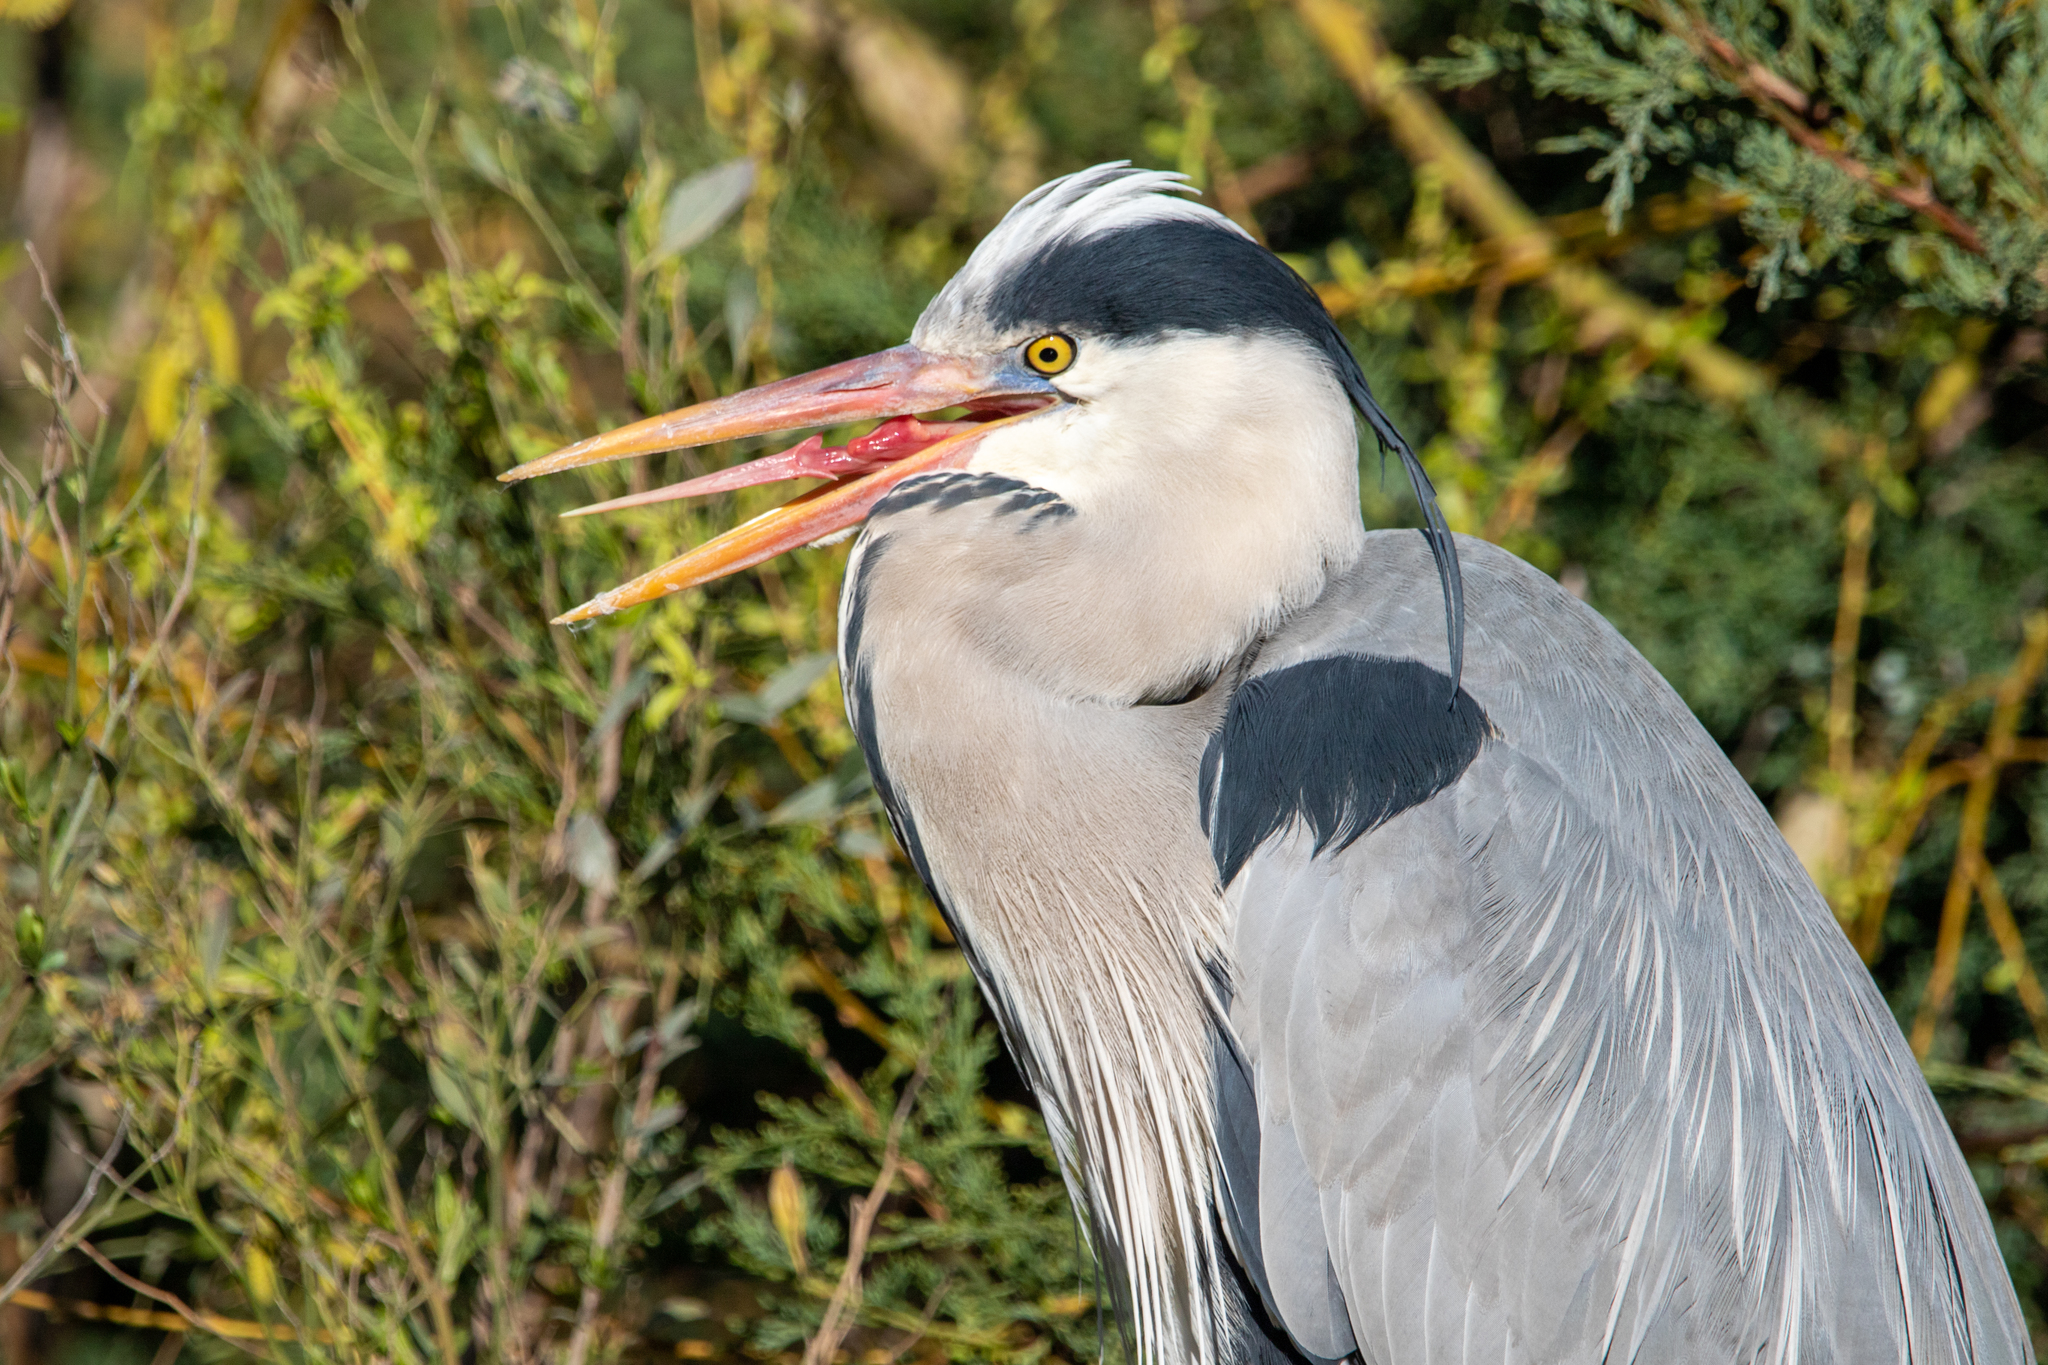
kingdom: Animalia
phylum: Chordata
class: Aves
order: Pelecaniformes
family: Ardeidae
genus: Ardea
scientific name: Ardea cinerea
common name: Grey heron
